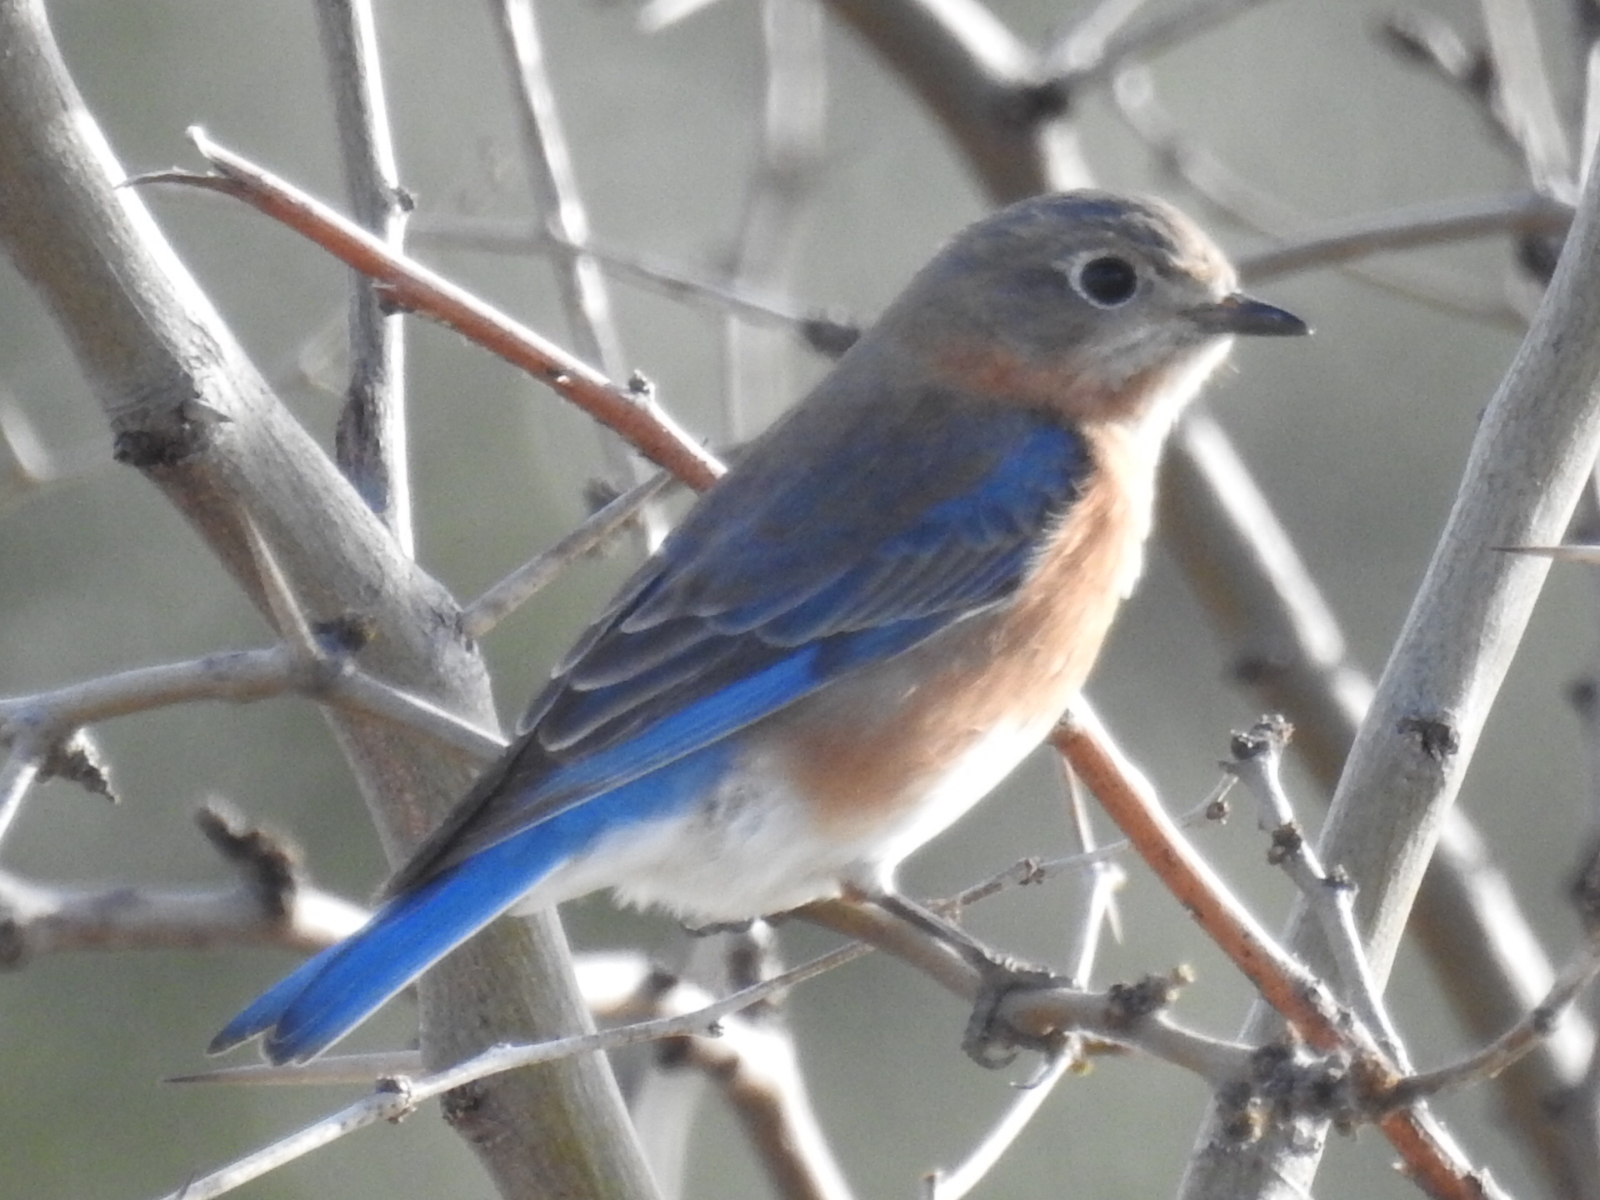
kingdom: Animalia
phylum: Chordata
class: Aves
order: Passeriformes
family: Turdidae
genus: Sialia
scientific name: Sialia sialis
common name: Eastern bluebird
